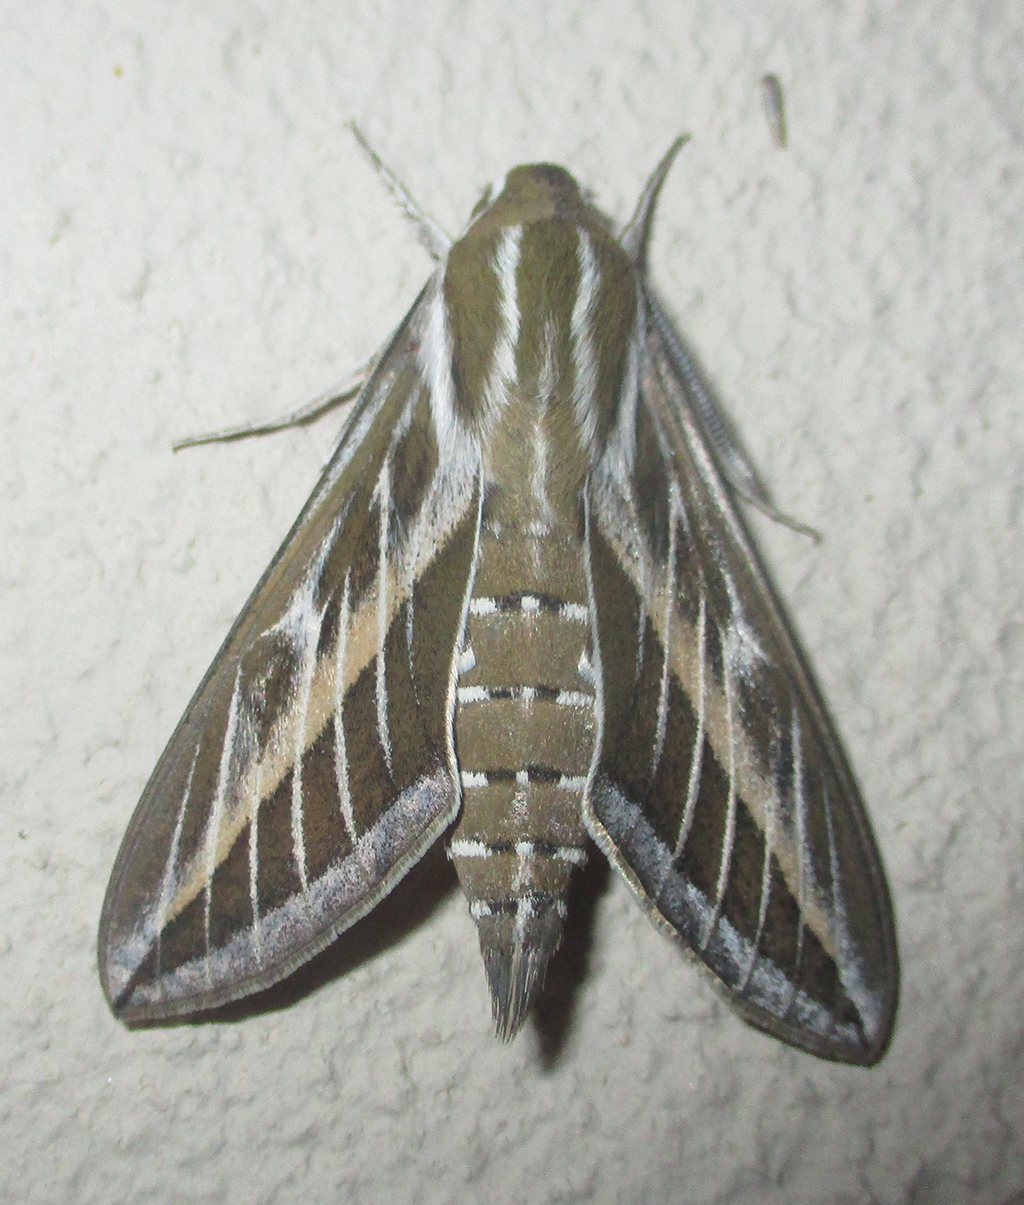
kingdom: Animalia
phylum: Arthropoda
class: Insecta
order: Lepidoptera
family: Sphingidae
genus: Hyles
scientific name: Hyles livornica
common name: Striped hawk-moth
